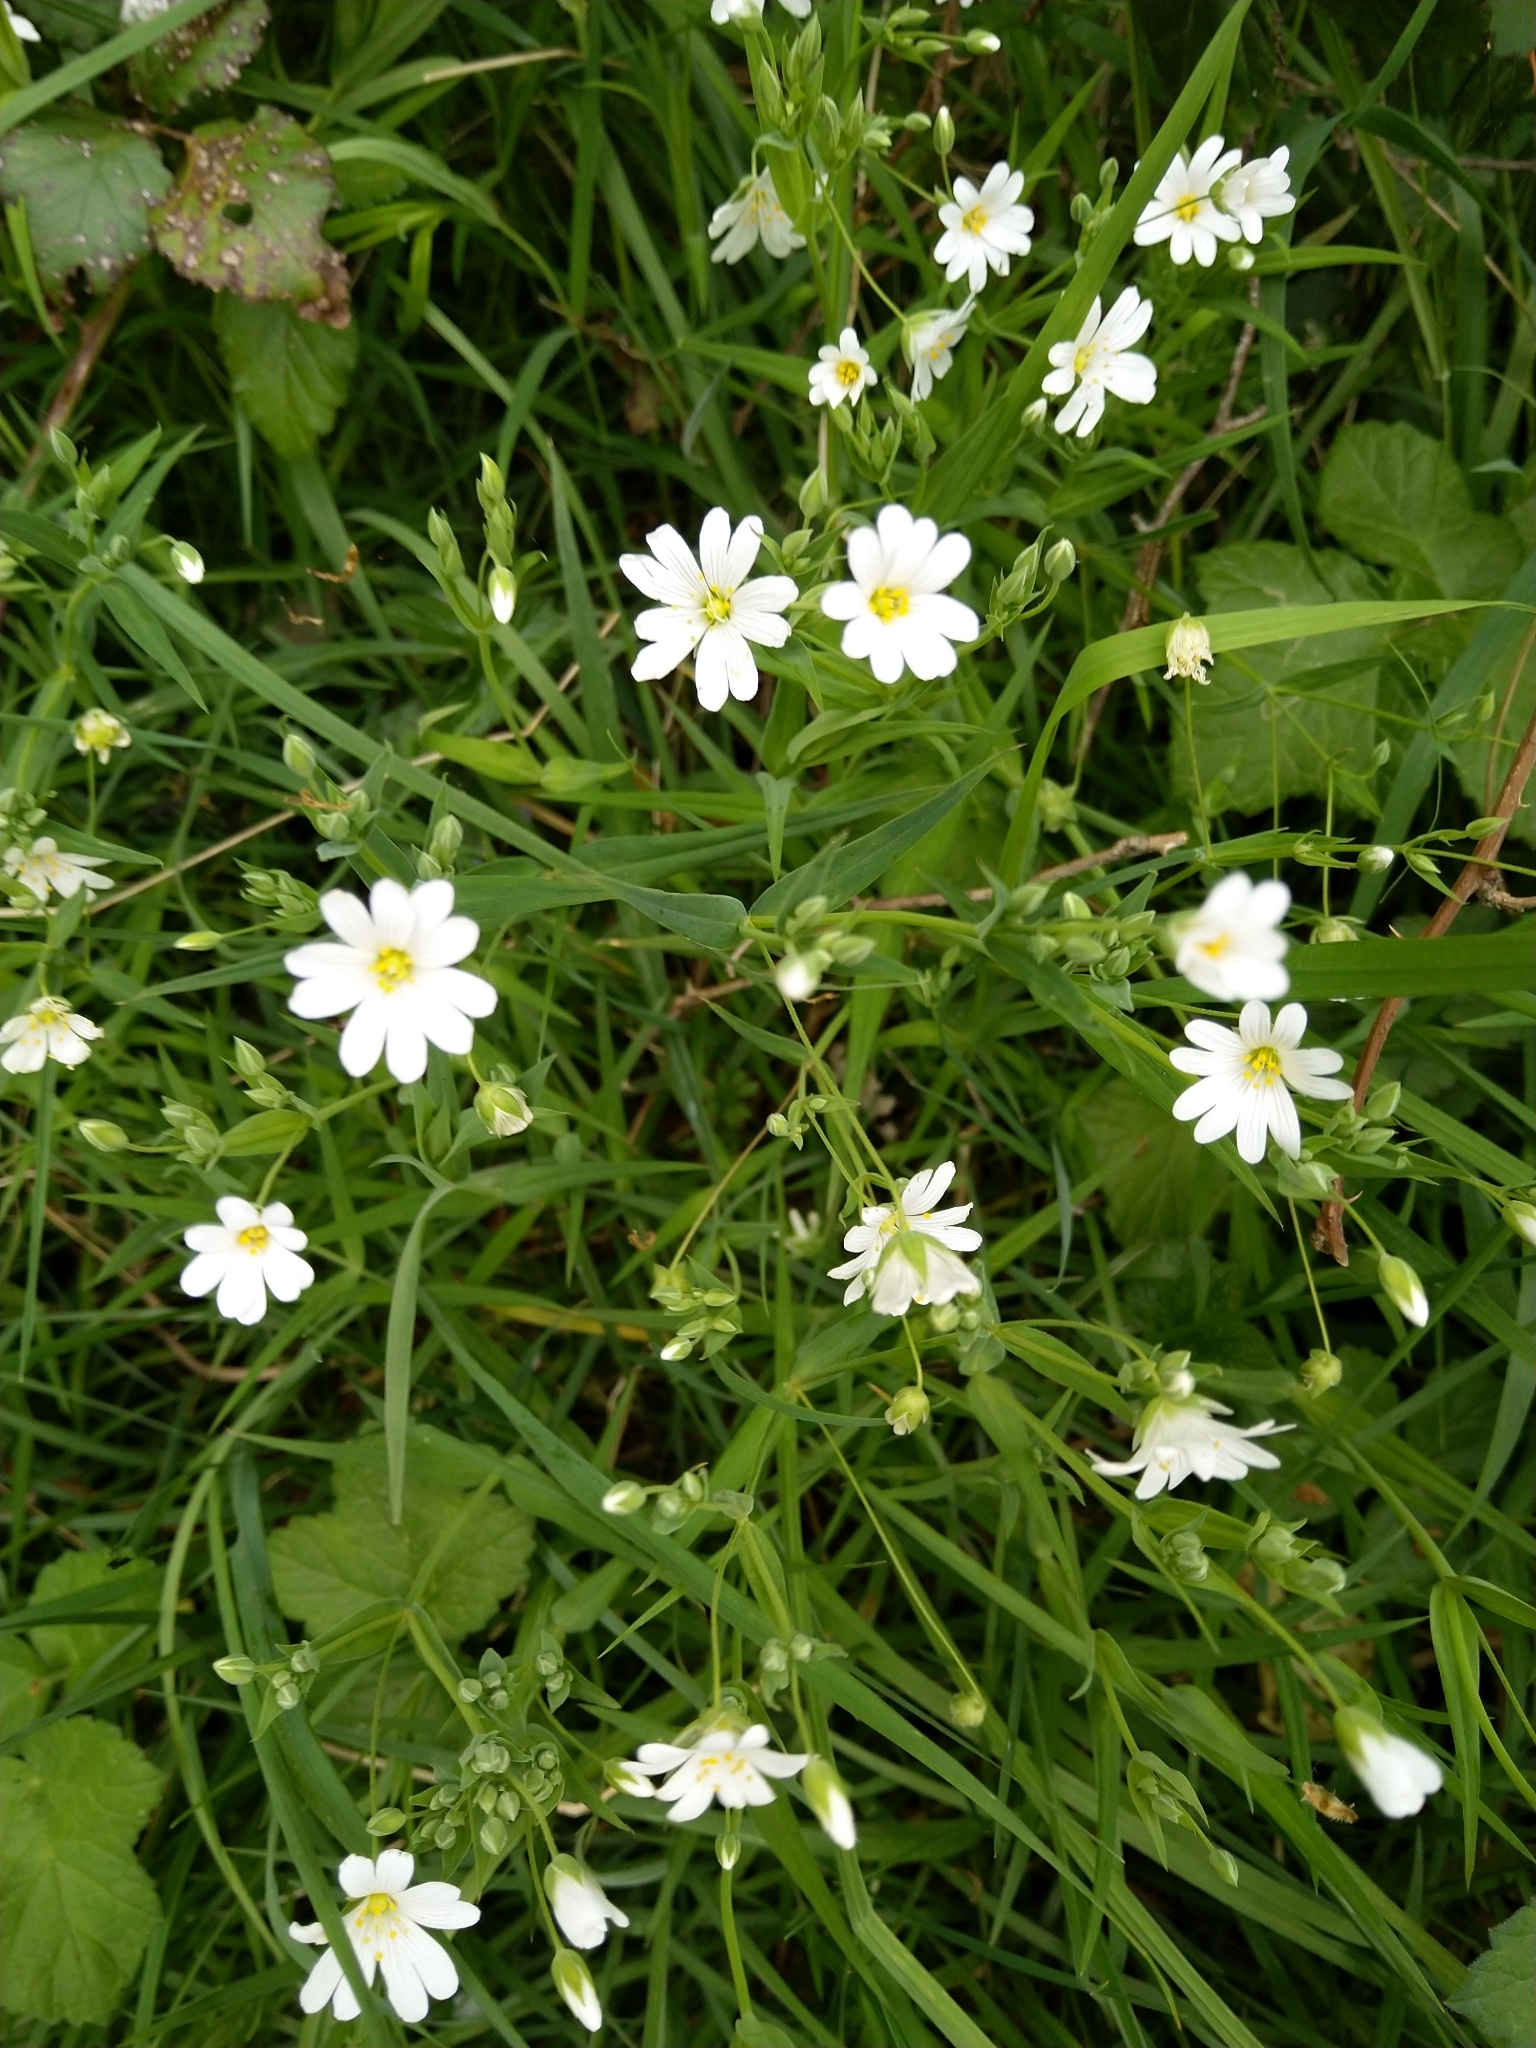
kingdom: Plantae
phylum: Tracheophyta
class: Magnoliopsida
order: Caryophyllales
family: Caryophyllaceae
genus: Rabelera
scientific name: Rabelera holostea
